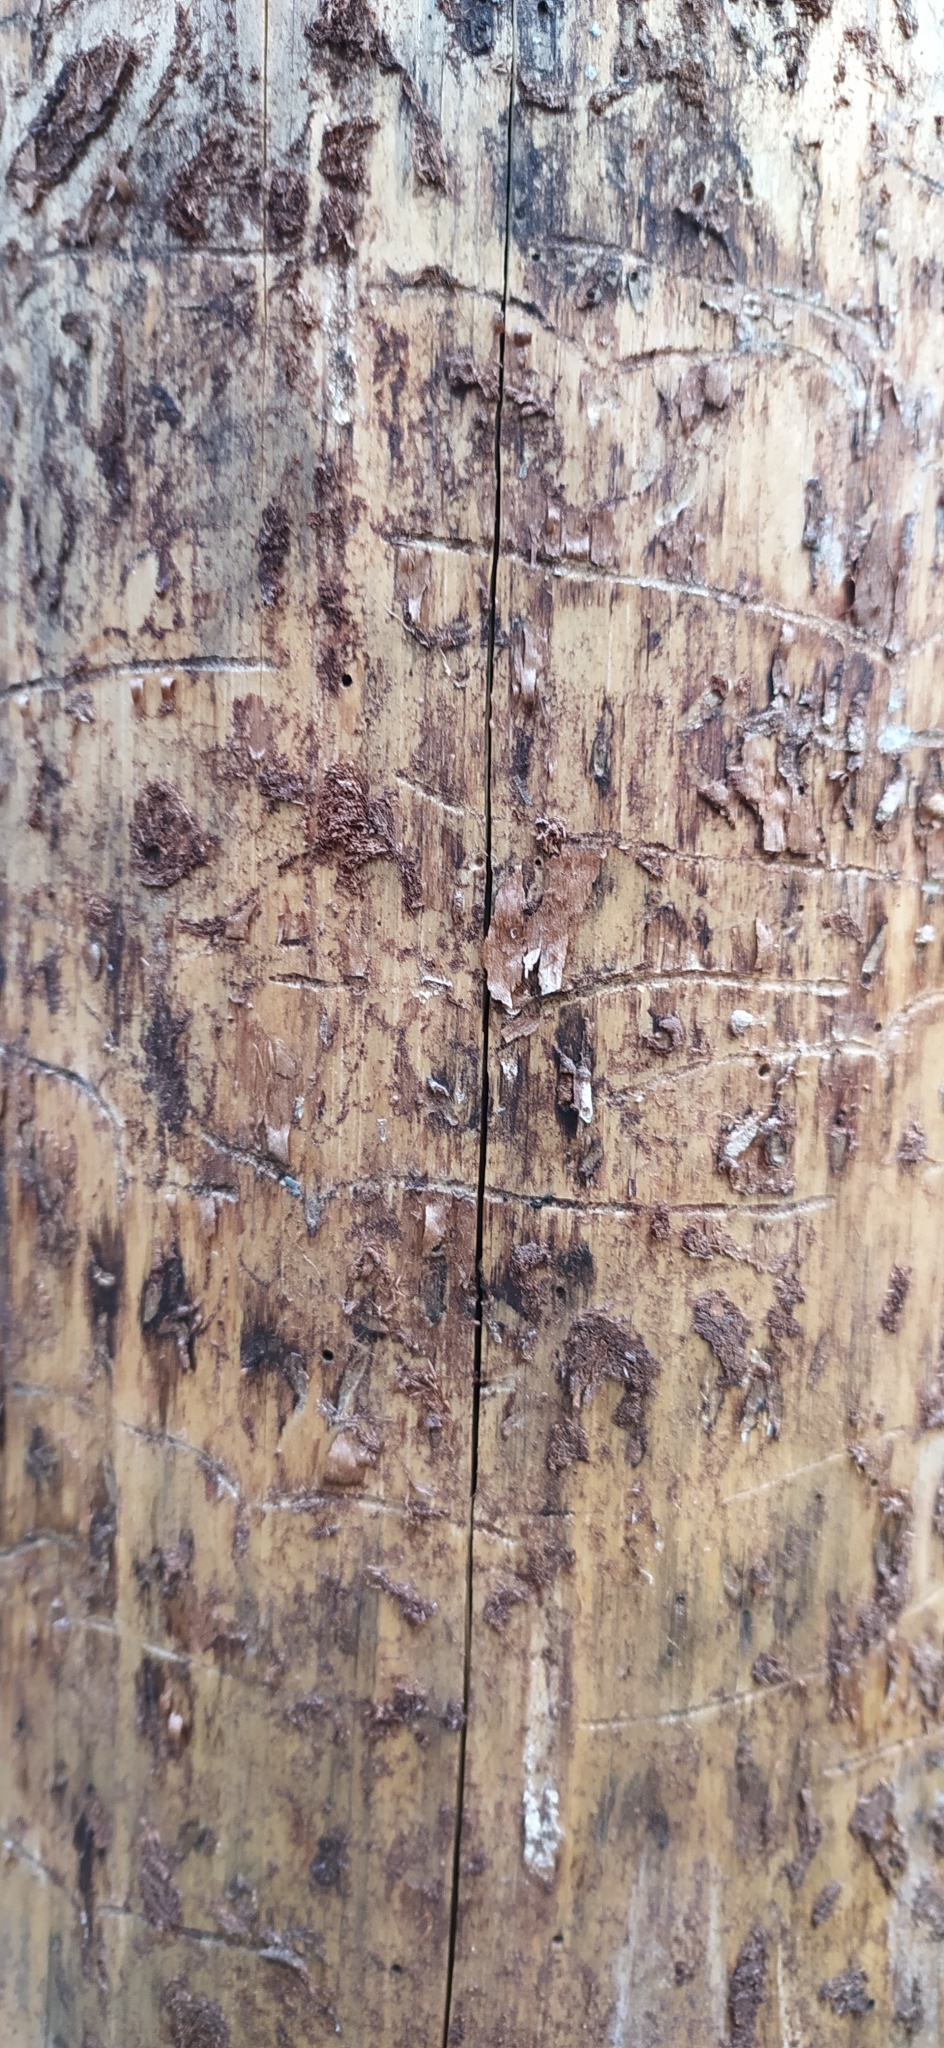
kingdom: Animalia
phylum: Arthropoda
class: Insecta
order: Coleoptera
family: Curculionidae
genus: Tomicus
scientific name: Tomicus minor
